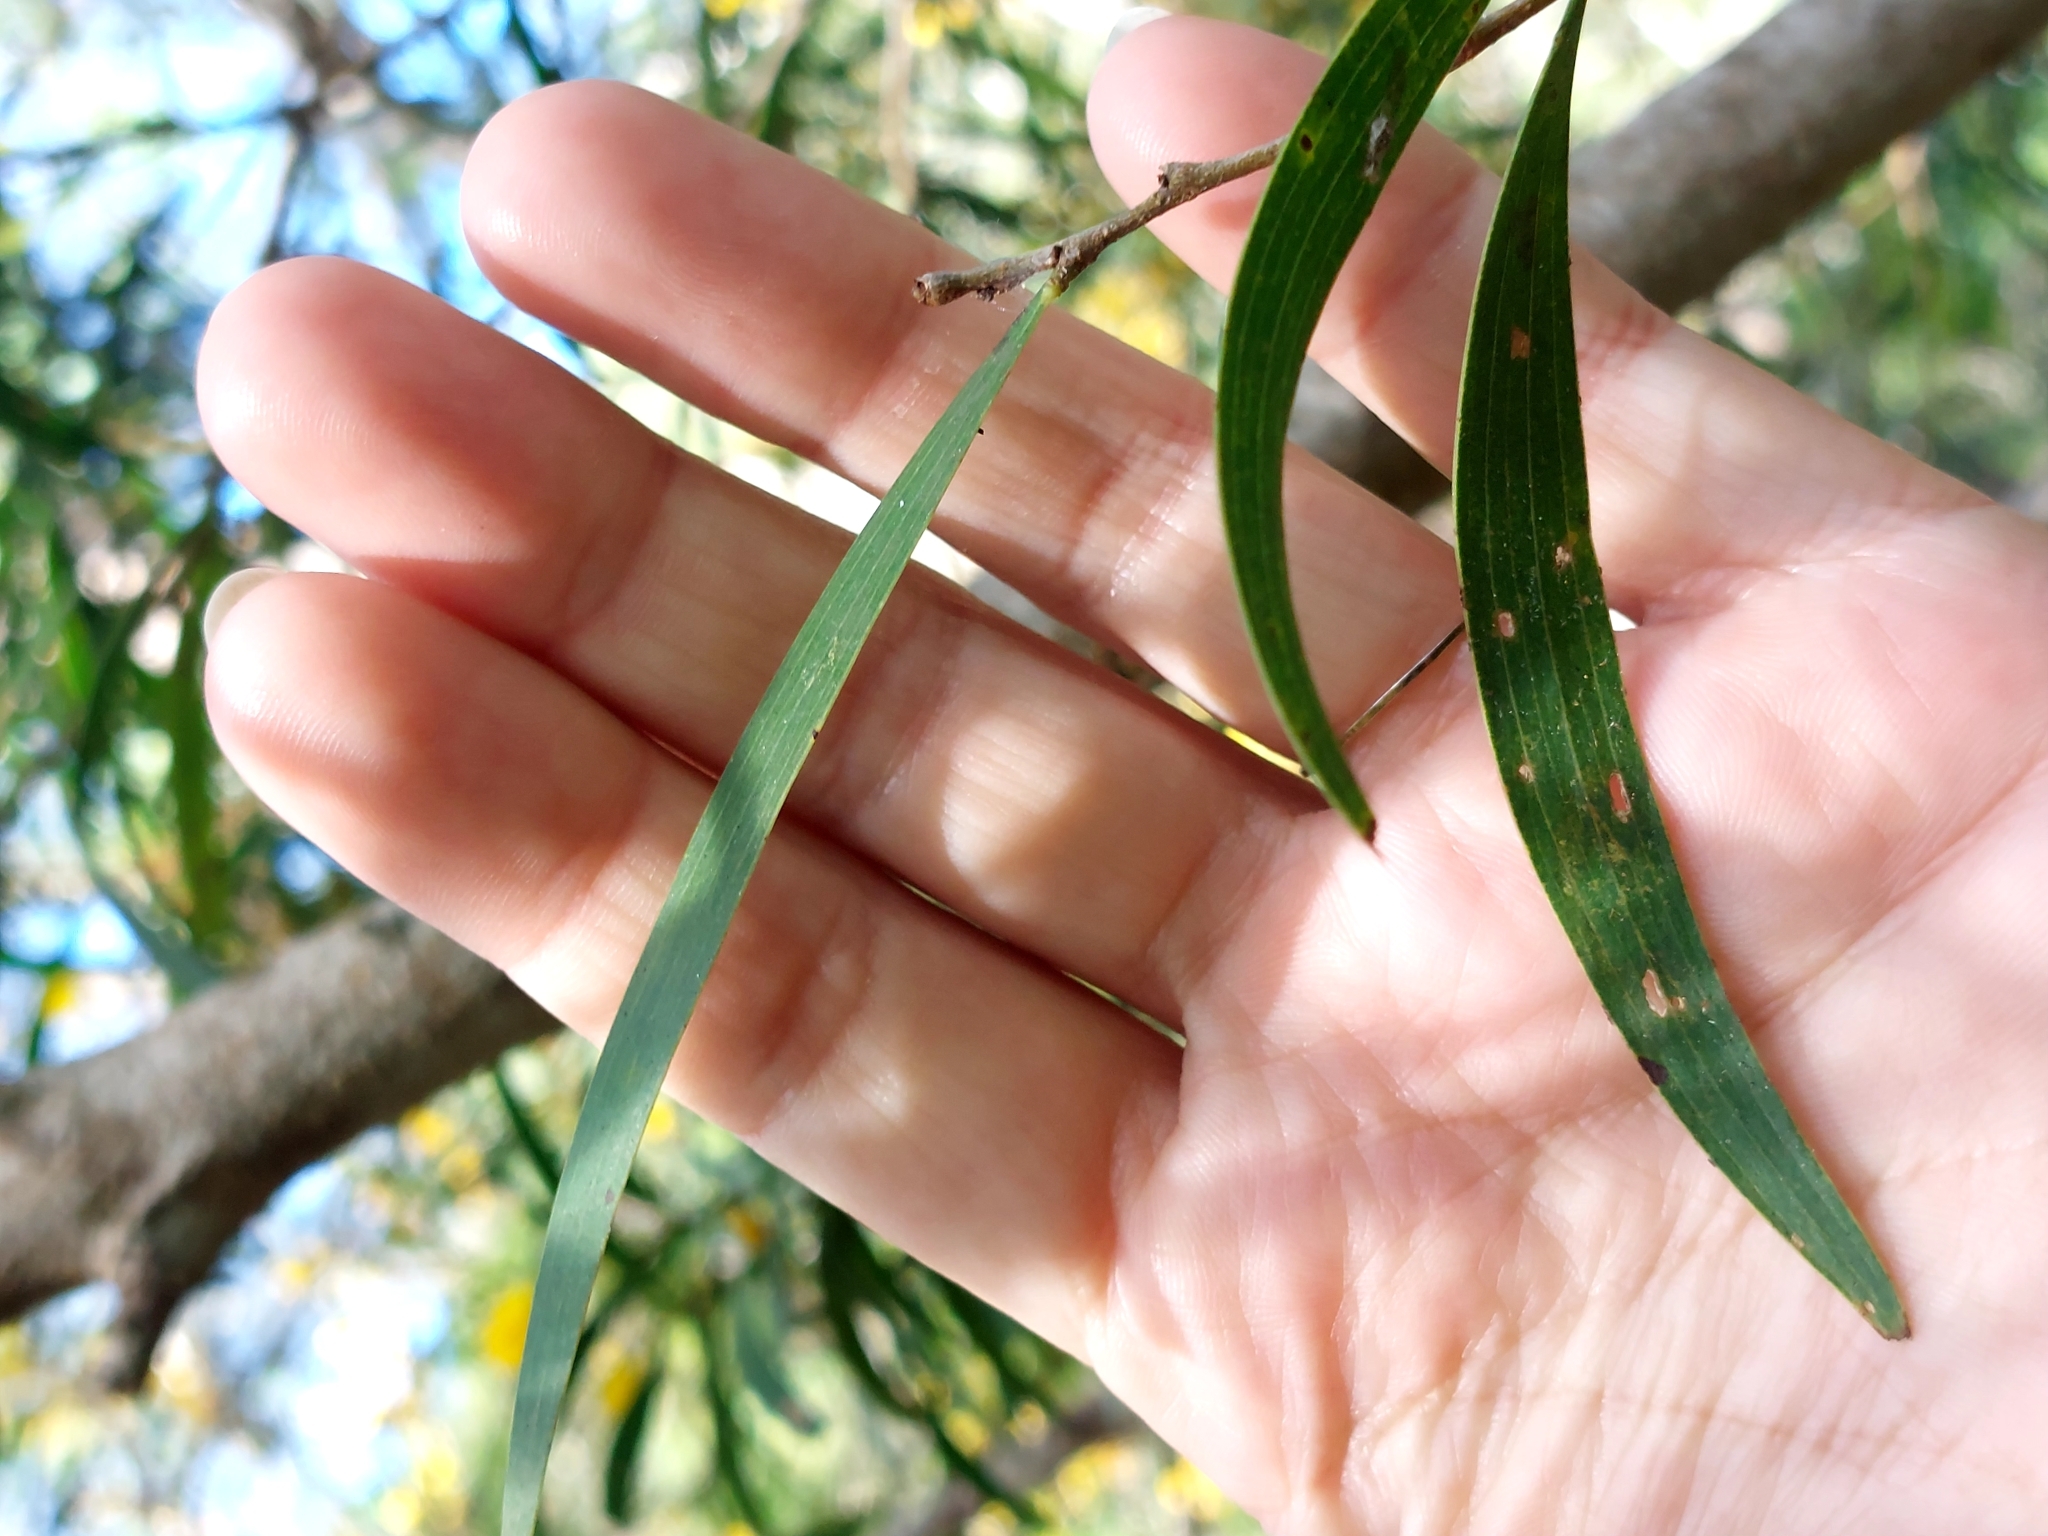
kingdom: Plantae
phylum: Tracheophyta
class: Magnoliopsida
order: Fabales
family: Fabaceae
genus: Acacia
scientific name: Acacia confusa
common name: Formosan koa
